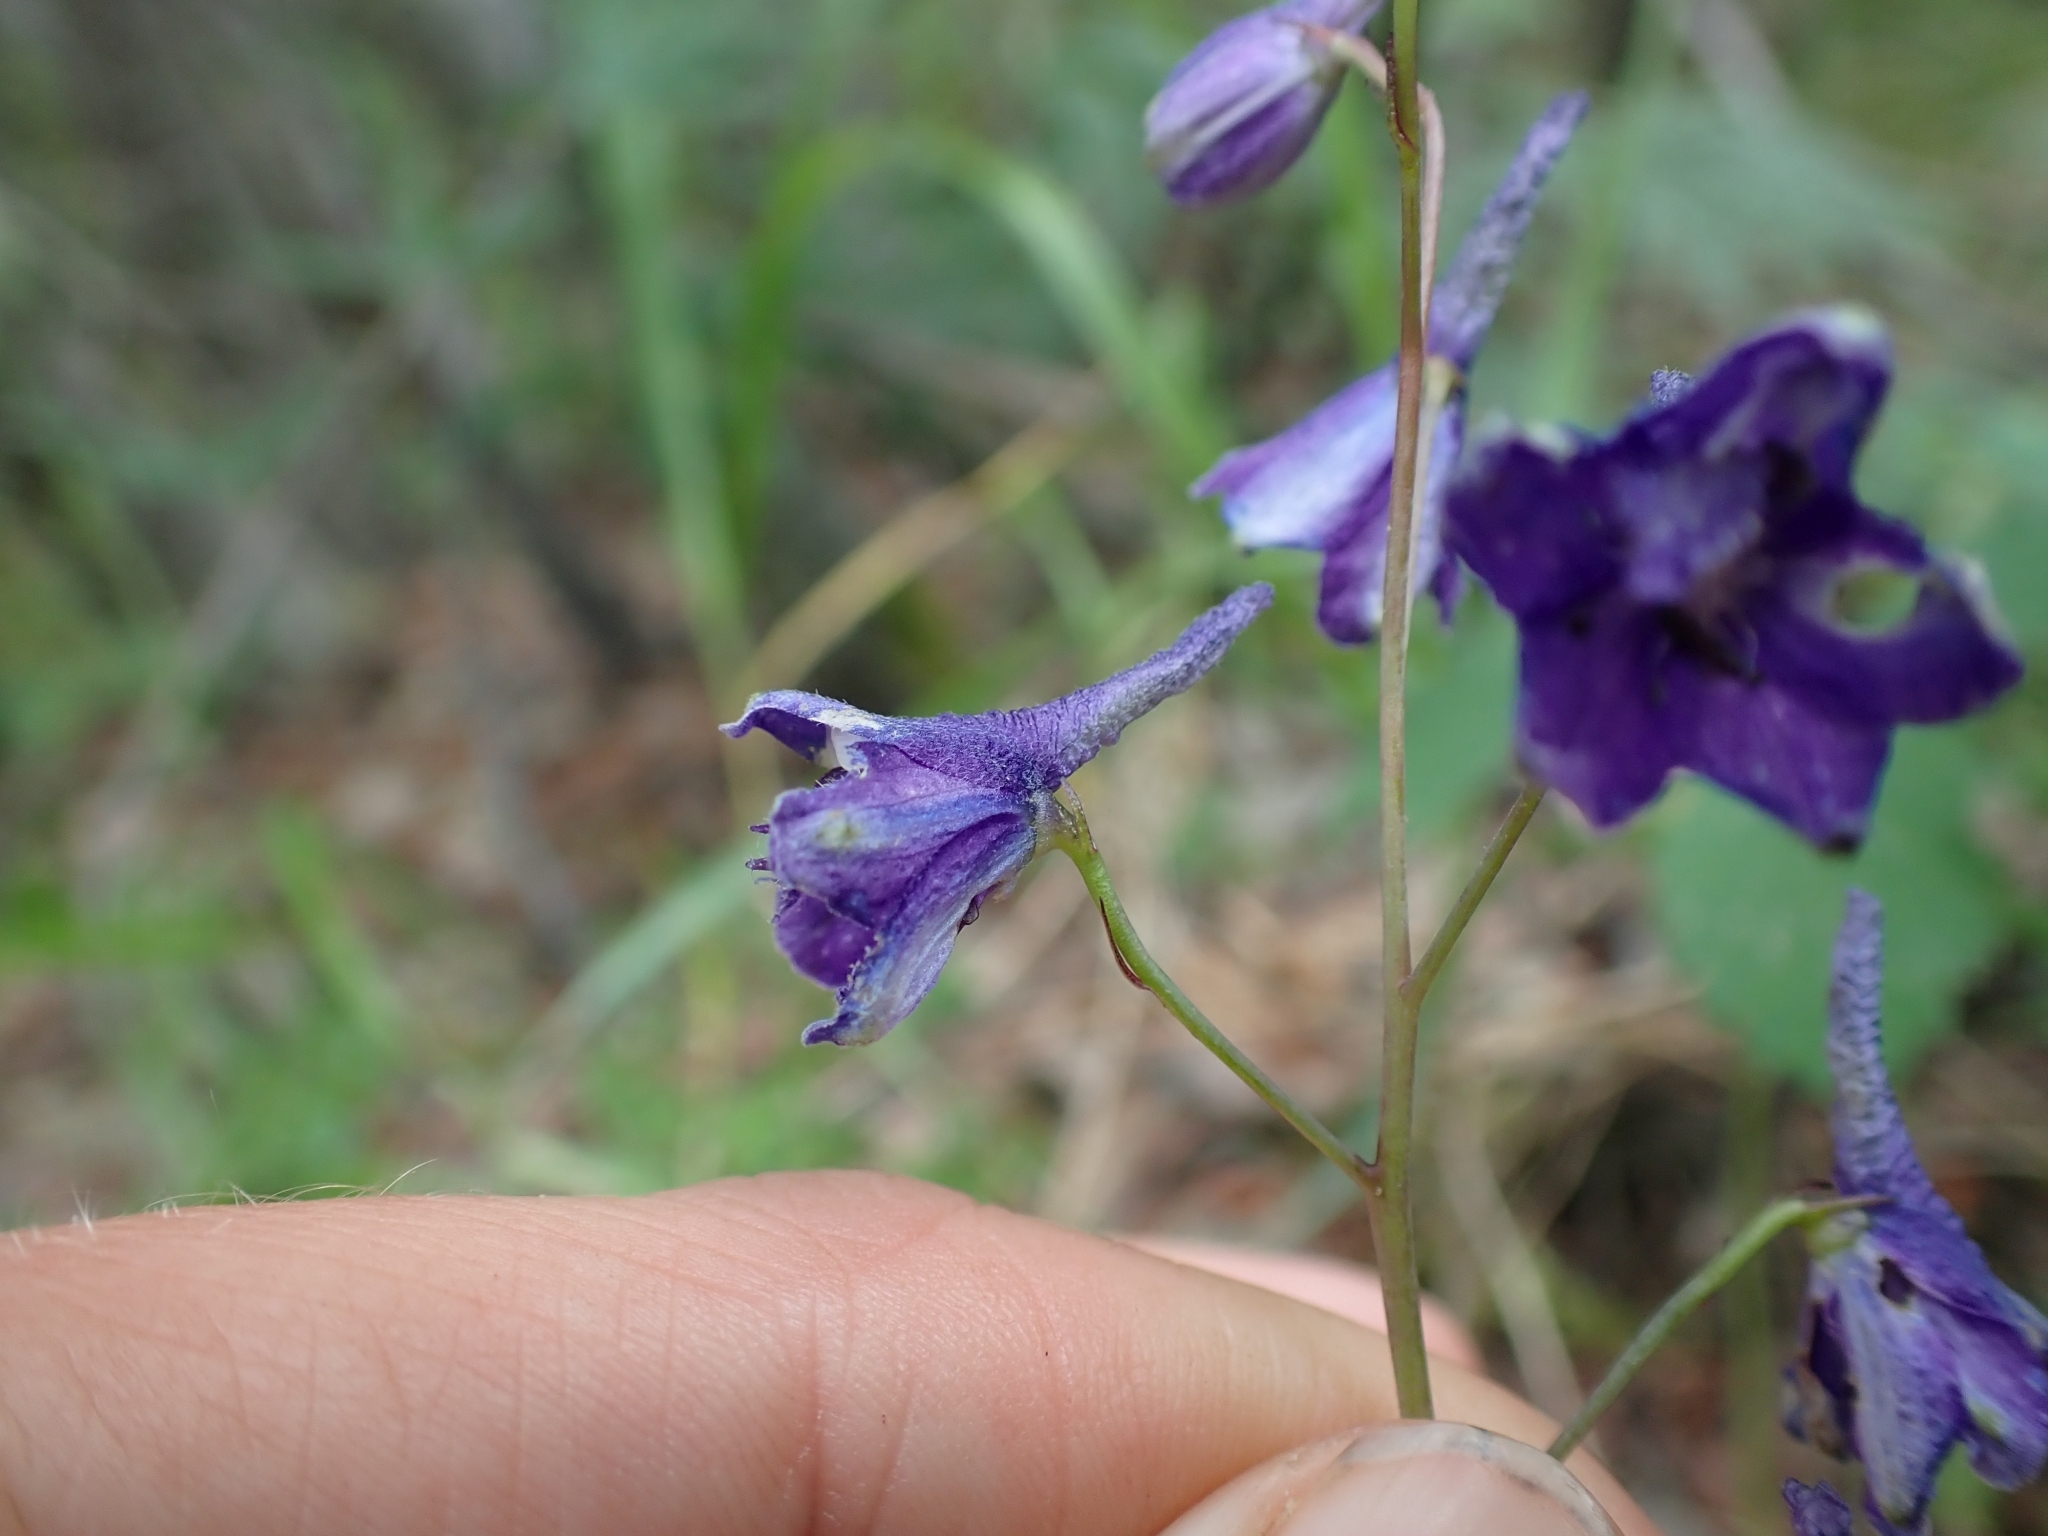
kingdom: Plantae
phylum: Tracheophyta
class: Magnoliopsida
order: Ranunculales
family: Ranunculaceae
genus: Delphinium
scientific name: Delphinium glaucum
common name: Brown's larkspur
